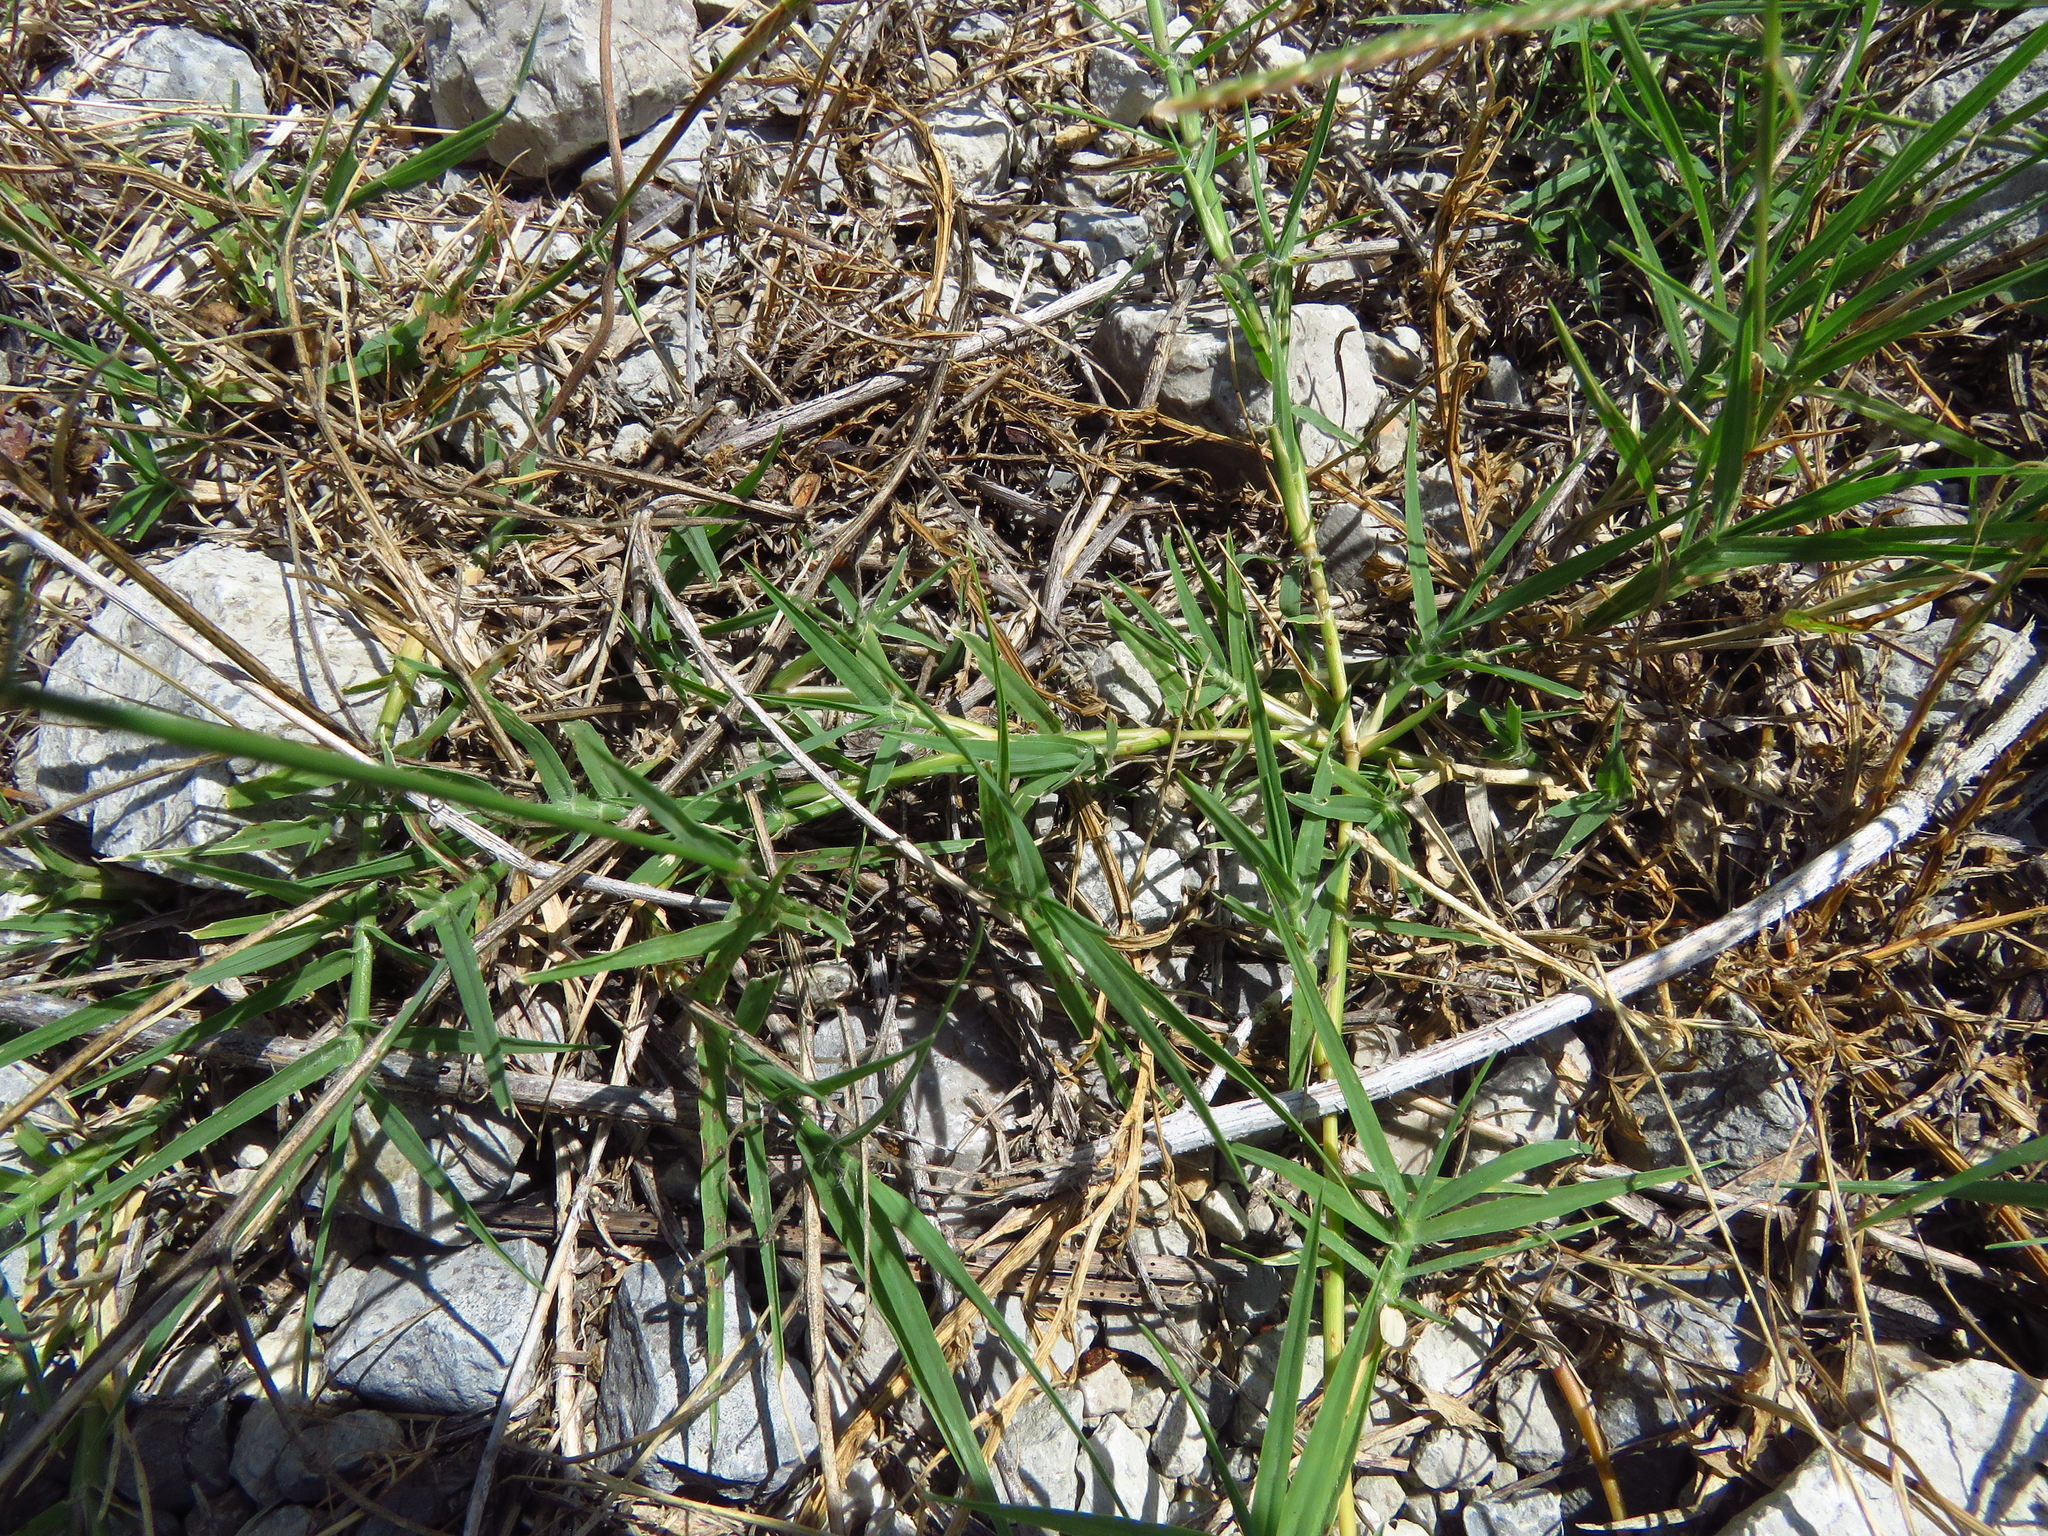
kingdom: Plantae
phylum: Tracheophyta
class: Liliopsida
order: Poales
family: Poaceae
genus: Cynodon
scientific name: Cynodon dactylon
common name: Bermuda grass
